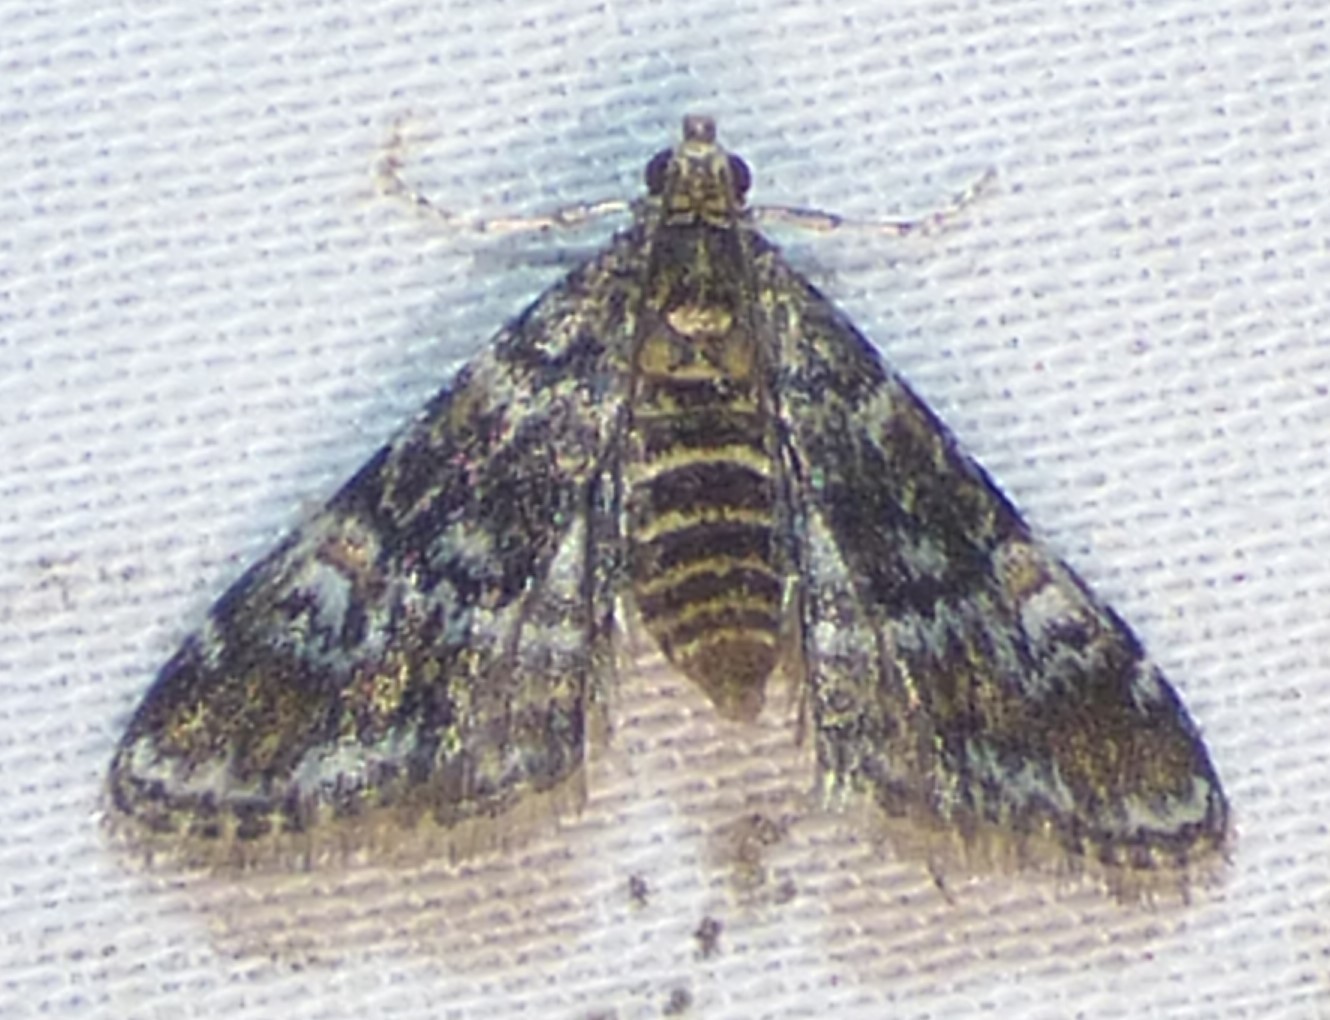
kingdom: Animalia
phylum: Arthropoda
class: Insecta
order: Lepidoptera
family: Crambidae
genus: Elophila
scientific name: Elophila obliteralis
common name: Waterlily leafcutter moth
